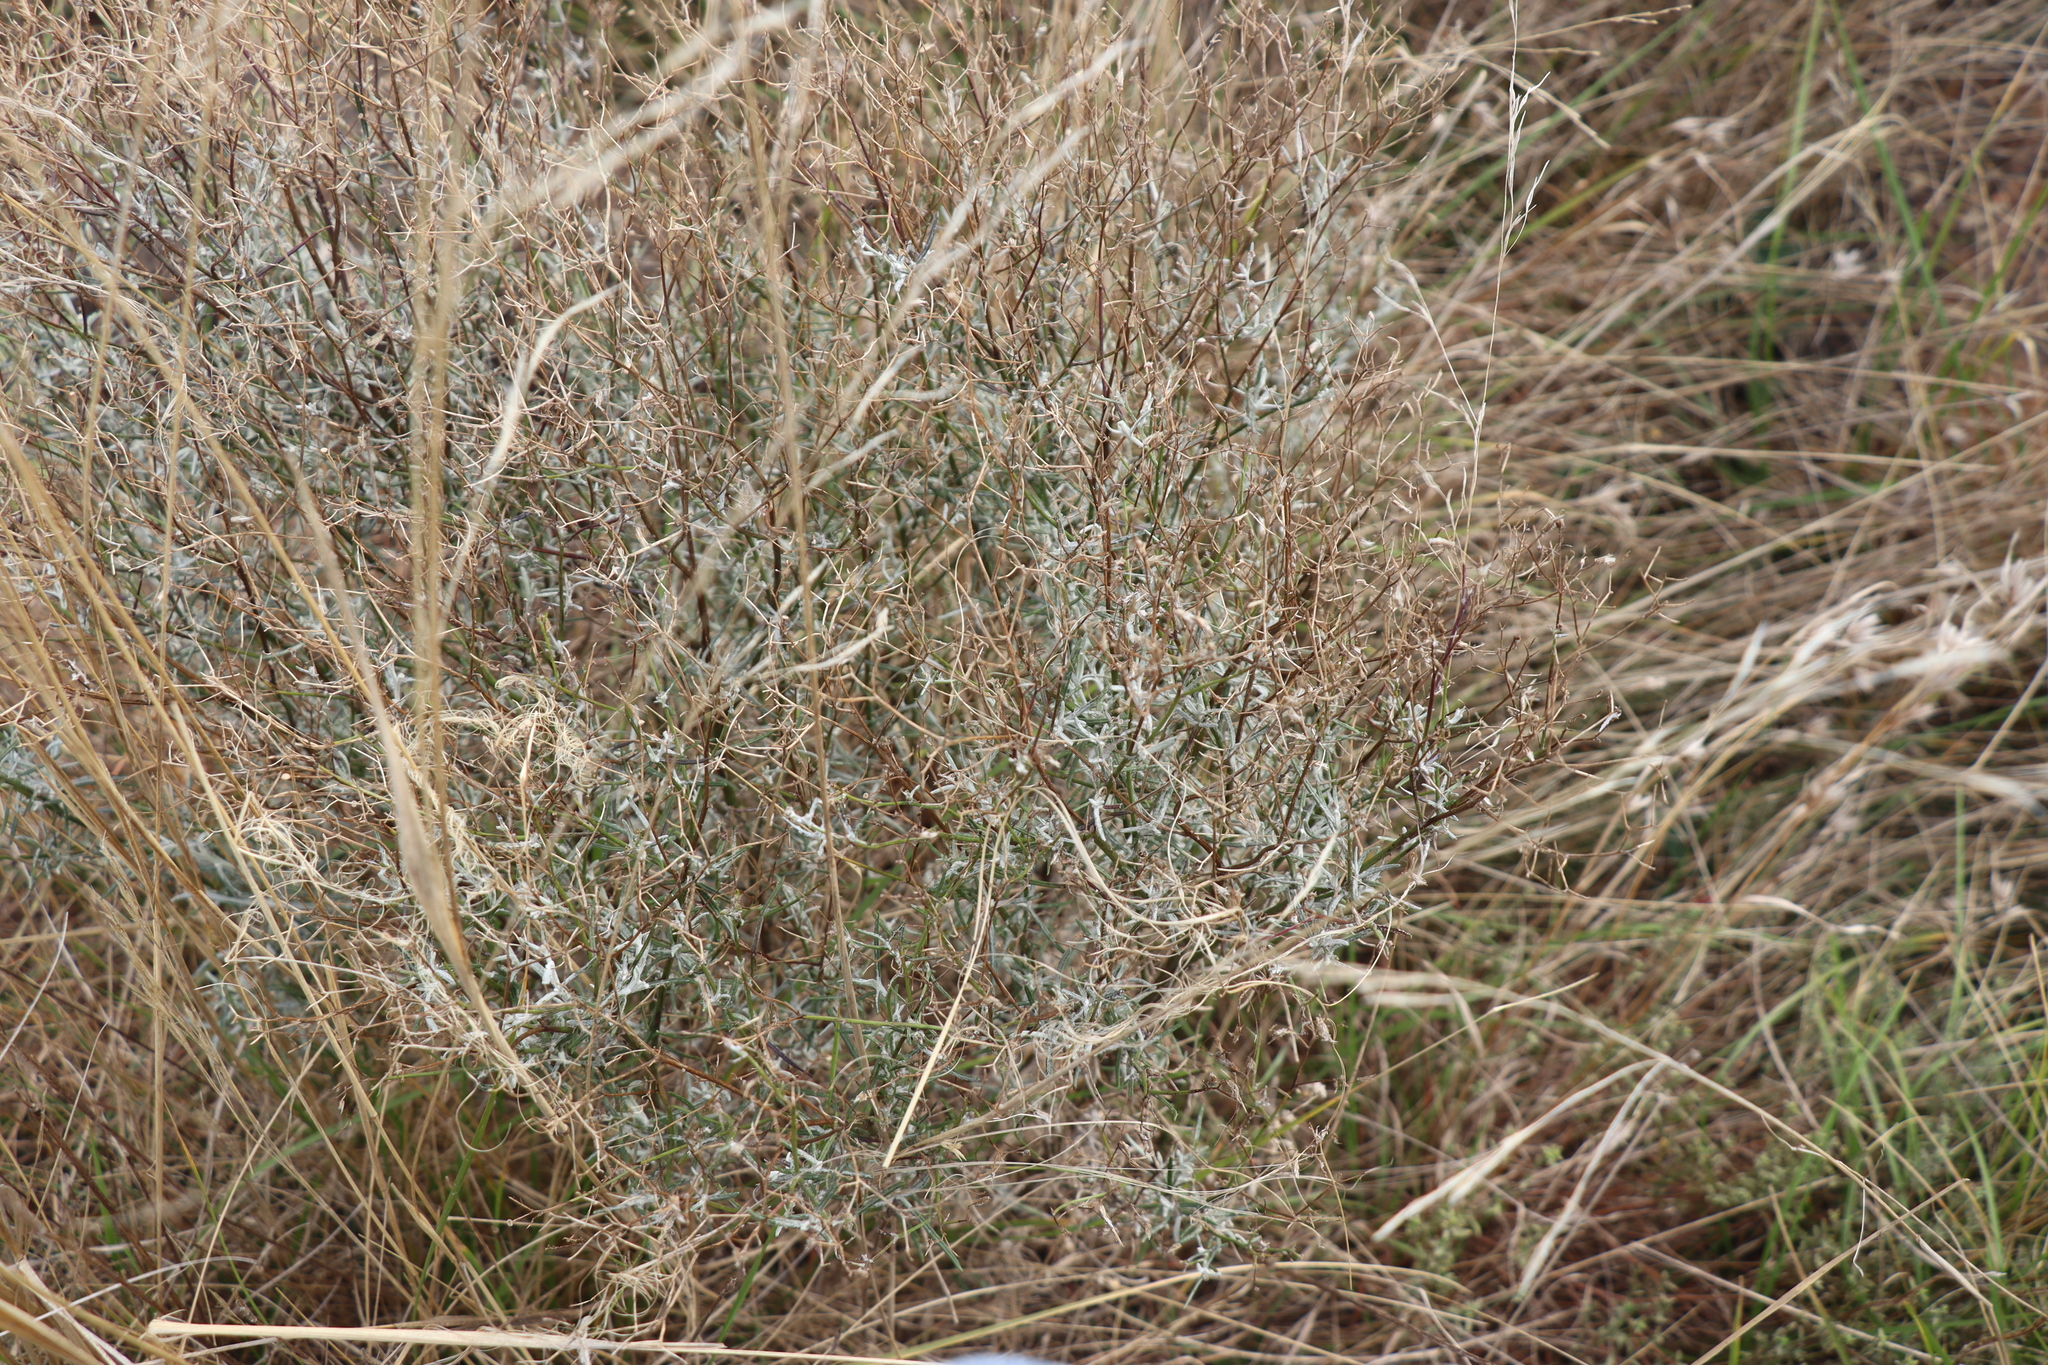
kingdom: Plantae
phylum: Tracheophyta
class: Magnoliopsida
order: Asterales
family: Asteraceae
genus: Senecio
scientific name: Senecio quadridentatus
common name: Cotton fireweed
